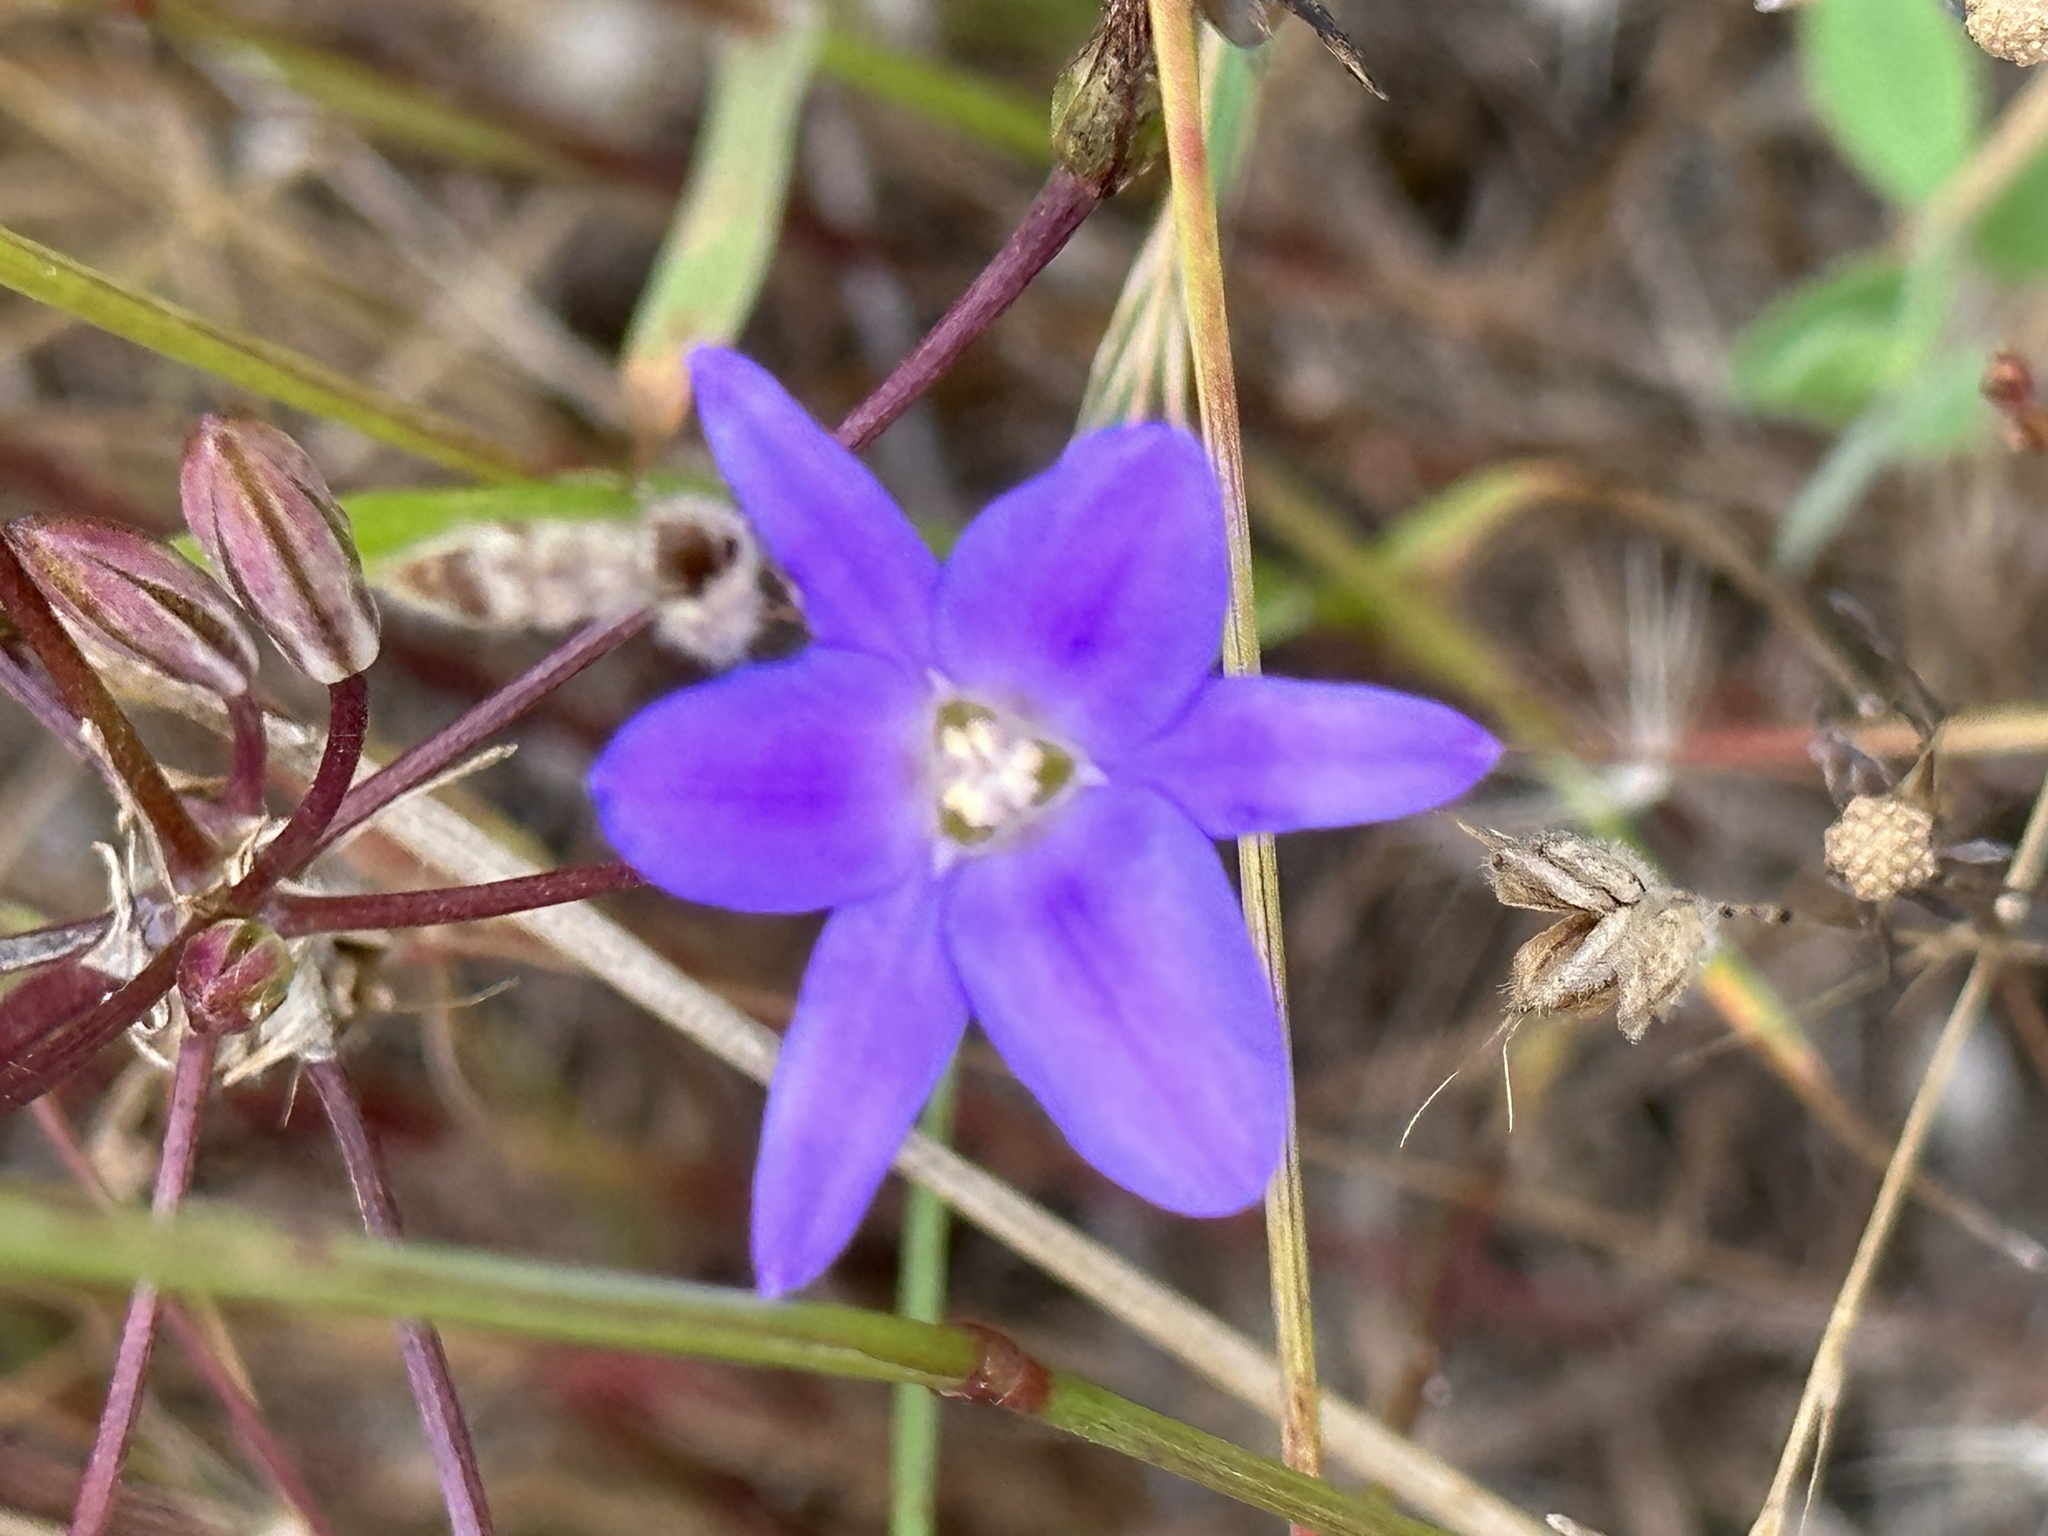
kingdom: Plantae
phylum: Tracheophyta
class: Liliopsida
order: Asparagales
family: Asparagaceae
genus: Brodiaea
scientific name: Brodiaea filifolia
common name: Threadleaf brodiaea
